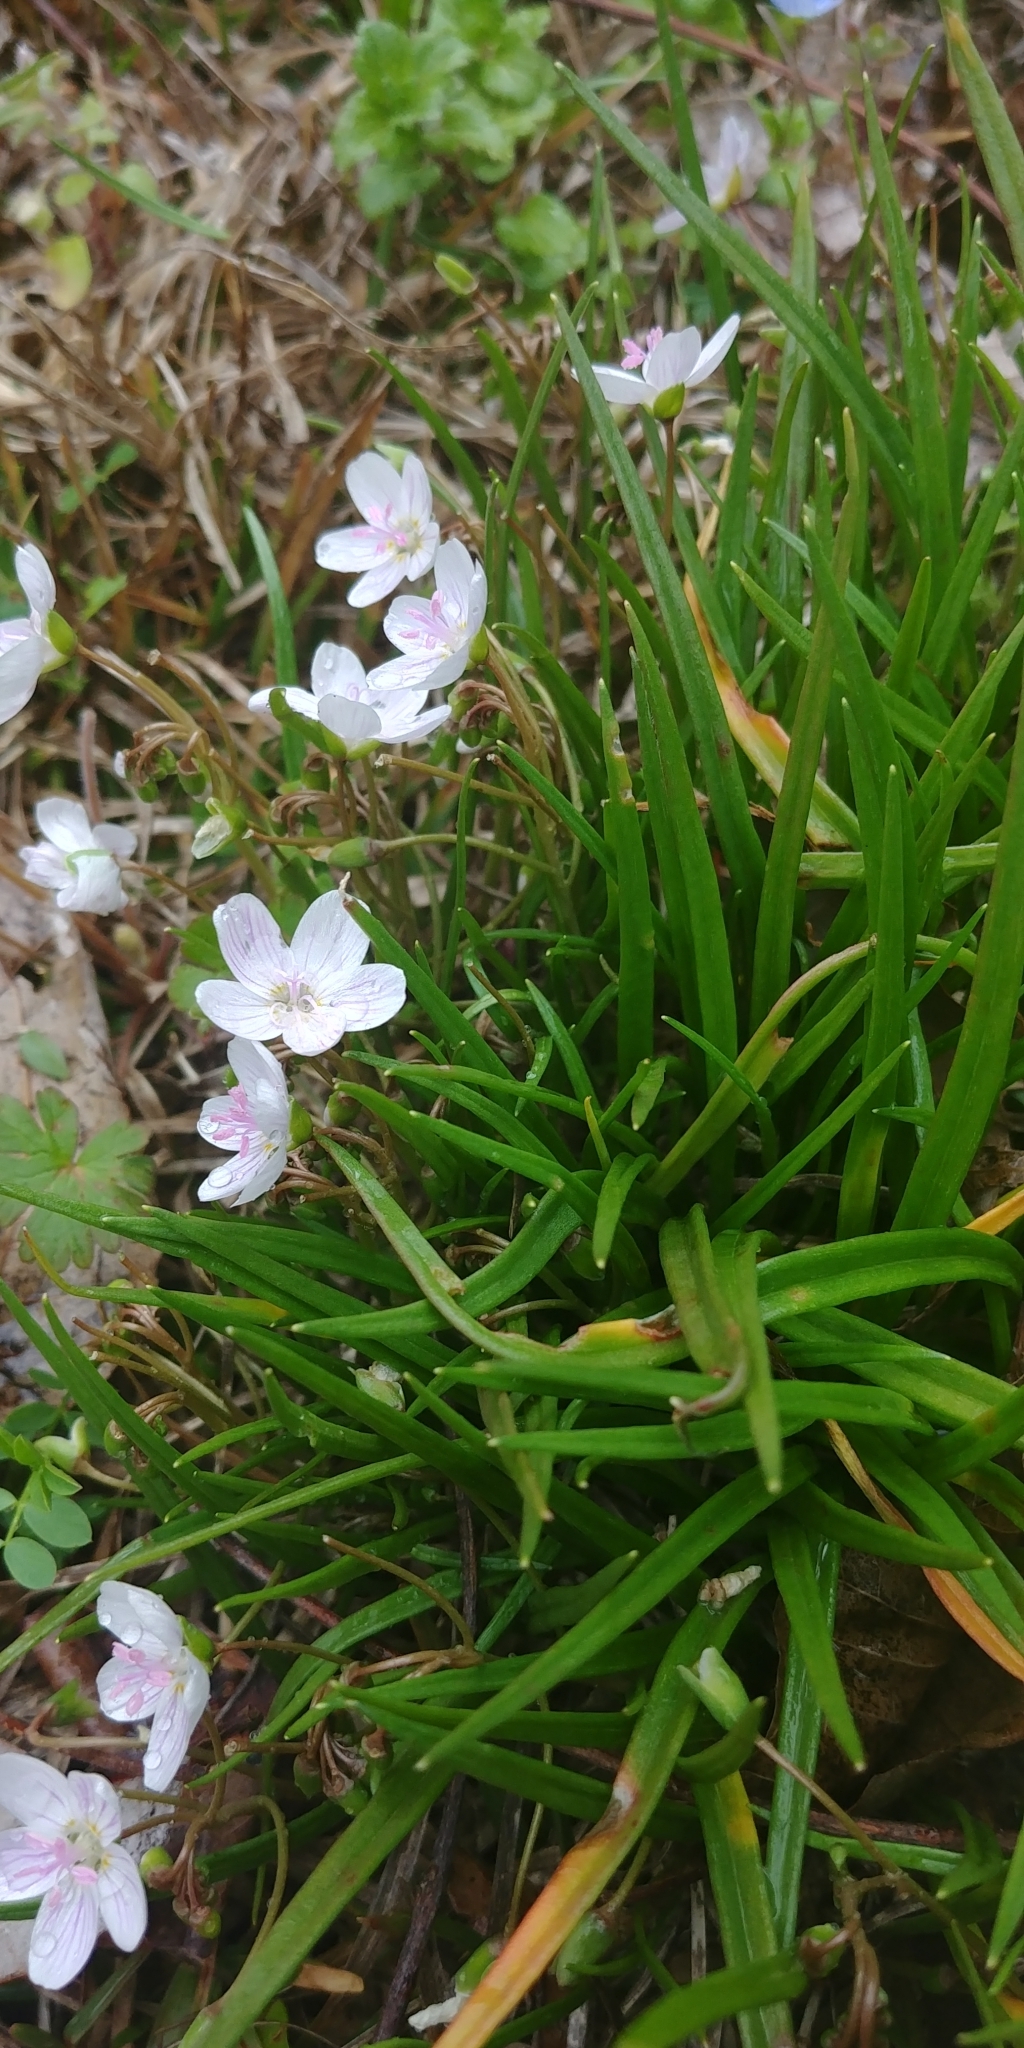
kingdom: Plantae
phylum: Tracheophyta
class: Magnoliopsida
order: Caryophyllales
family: Montiaceae
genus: Claytonia
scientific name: Claytonia virginica
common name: Virginia springbeauty
